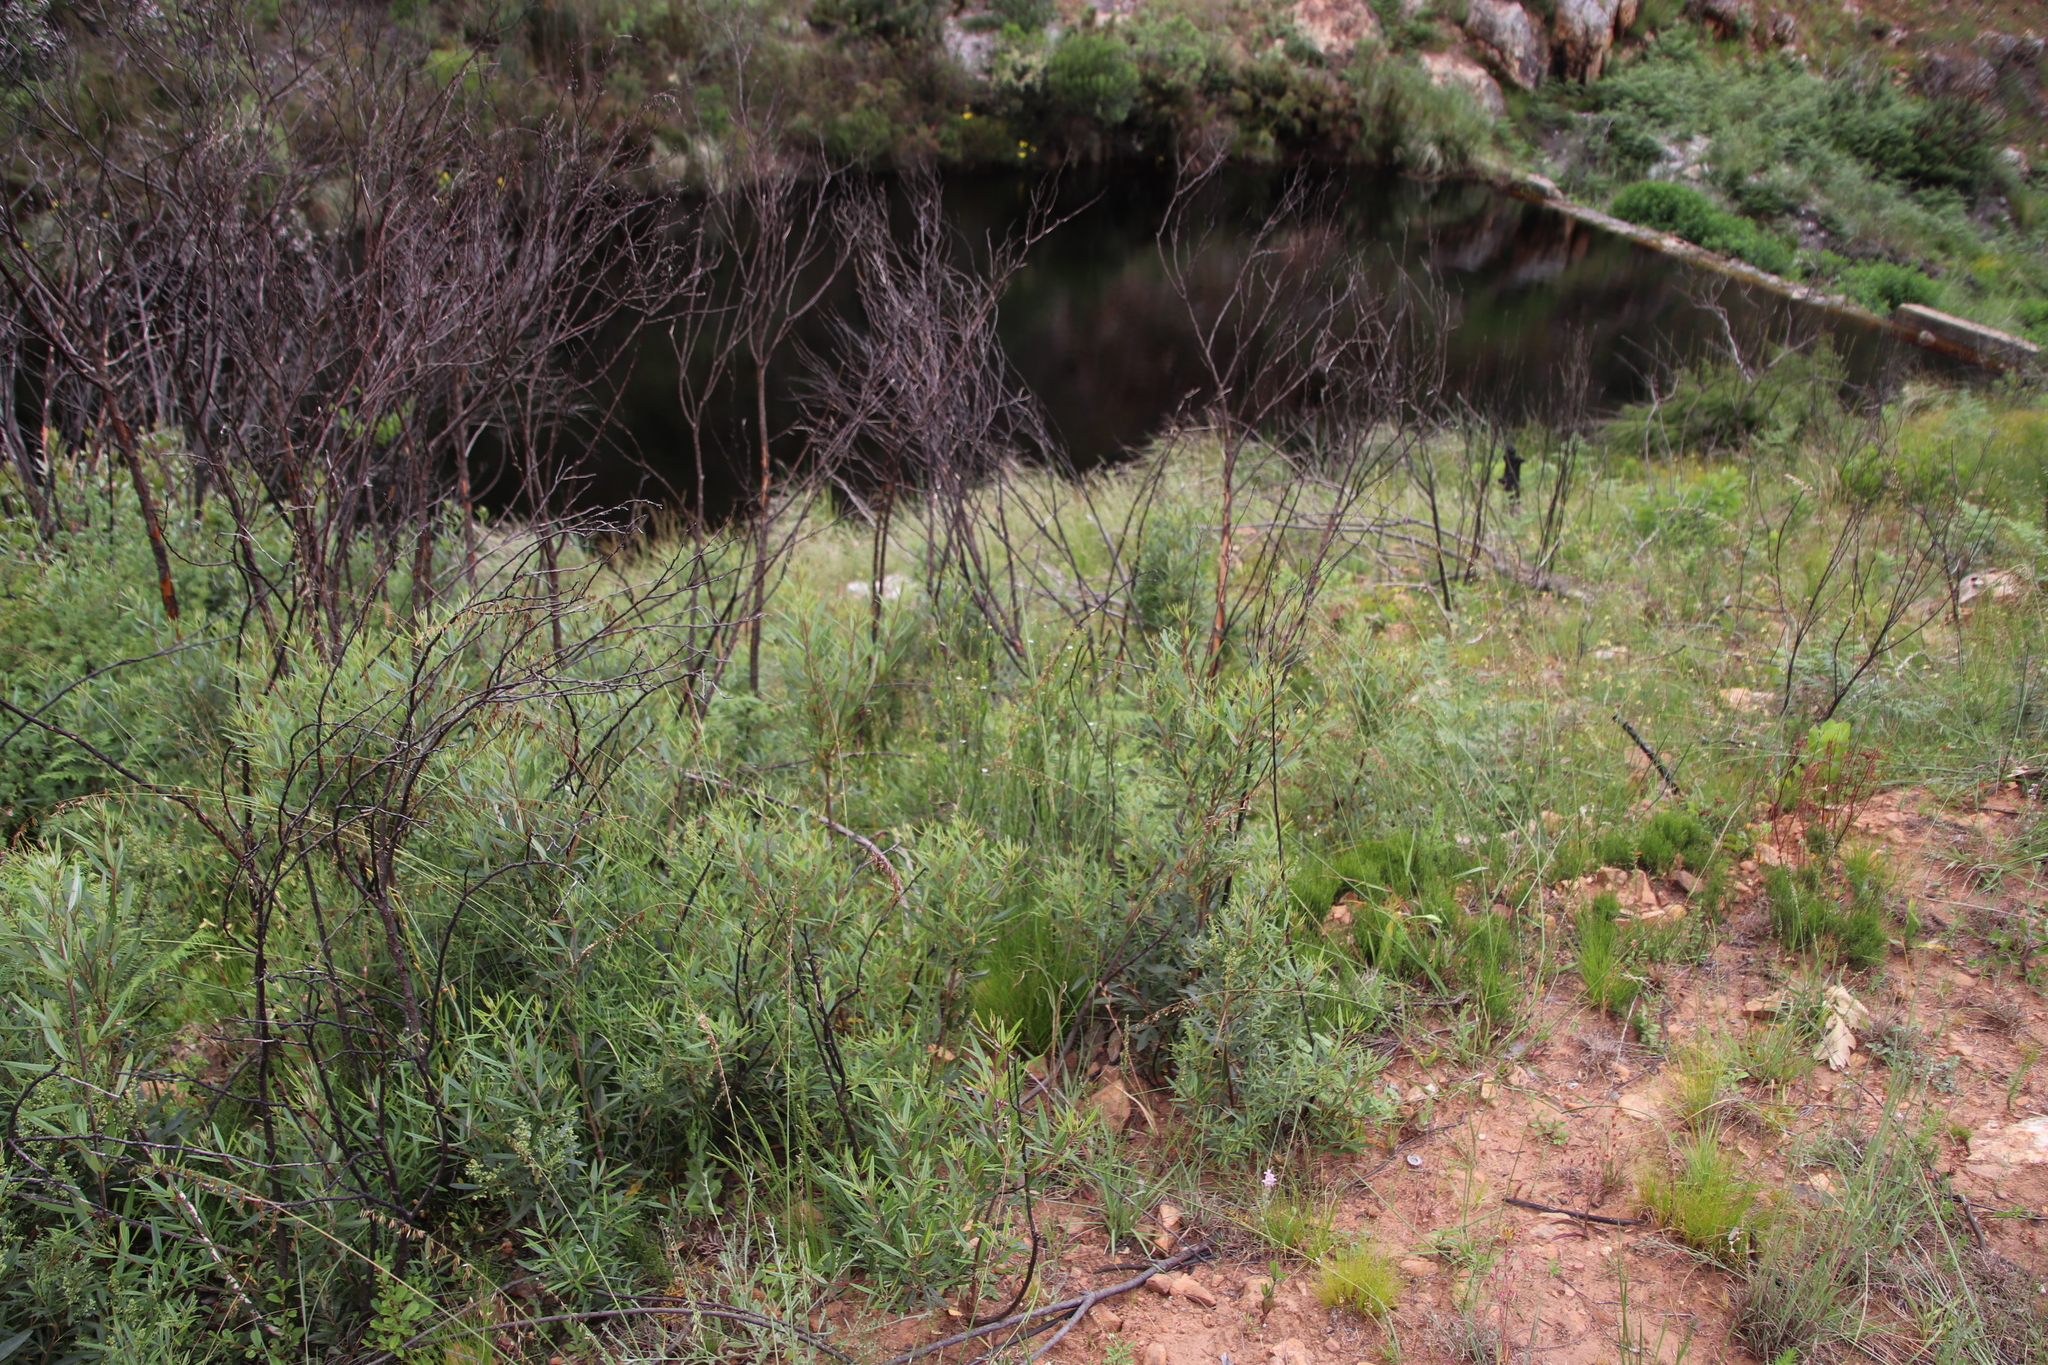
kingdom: Plantae
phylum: Tracheophyta
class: Magnoliopsida
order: Solanales
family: Montiniaceae
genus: Montinia
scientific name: Montinia caryophyllacea
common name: Wild clove-bush
